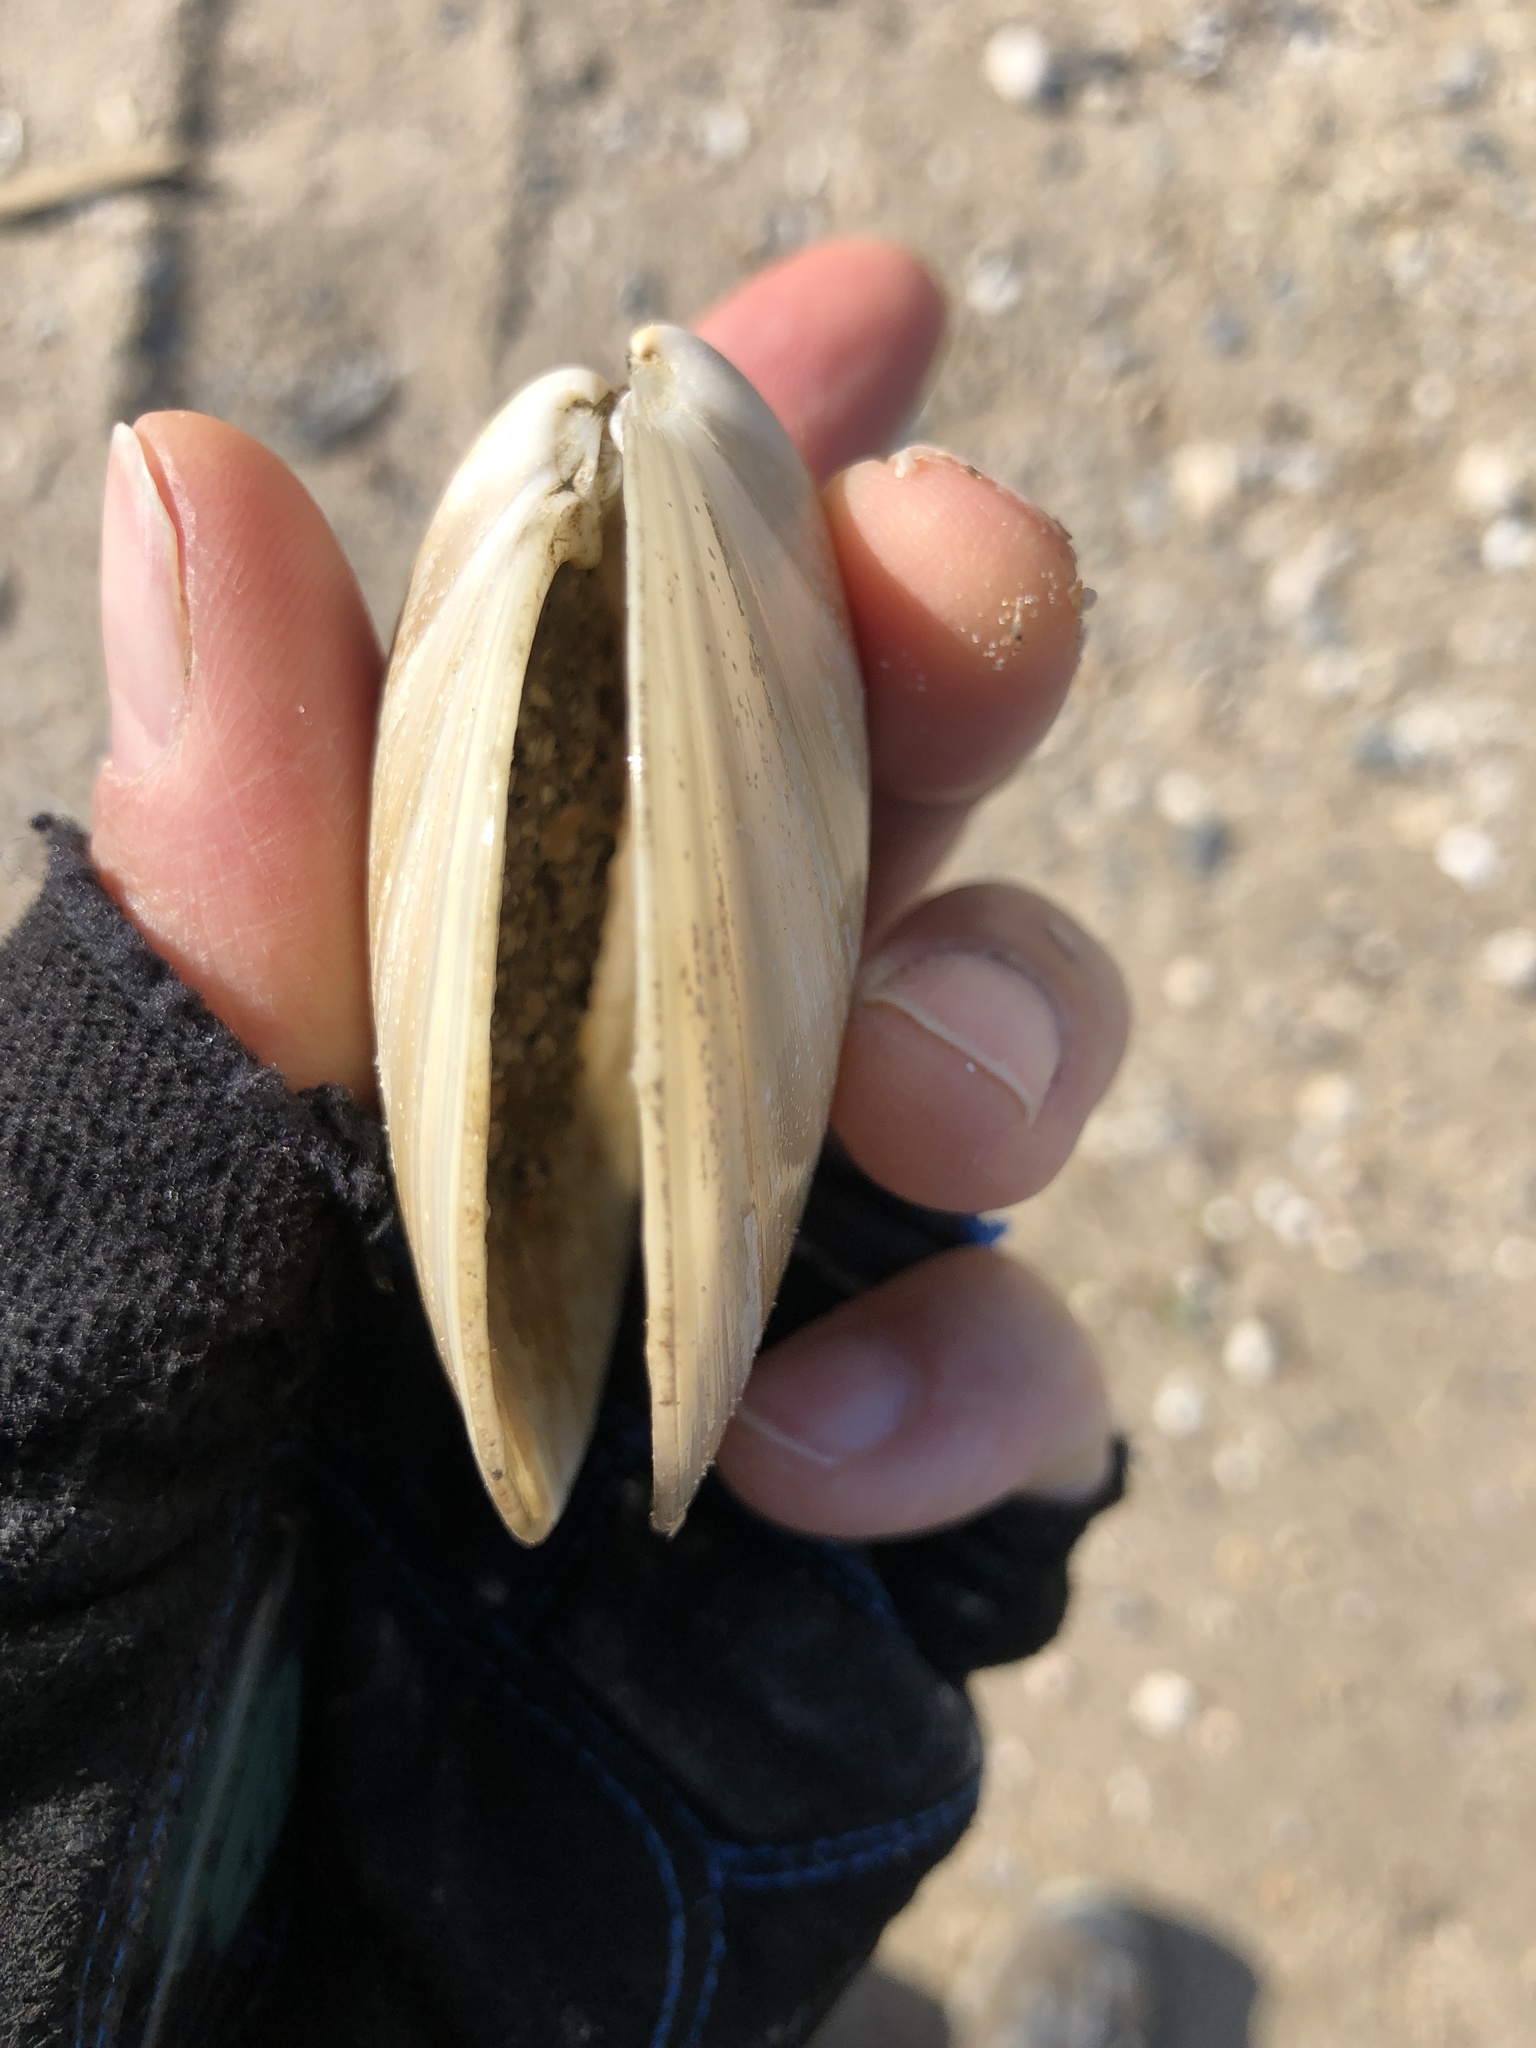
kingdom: Animalia
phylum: Mollusca
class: Bivalvia
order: Venerida
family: Veneridae
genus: Dosinia
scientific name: Dosinia discus
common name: Disk dosinia
